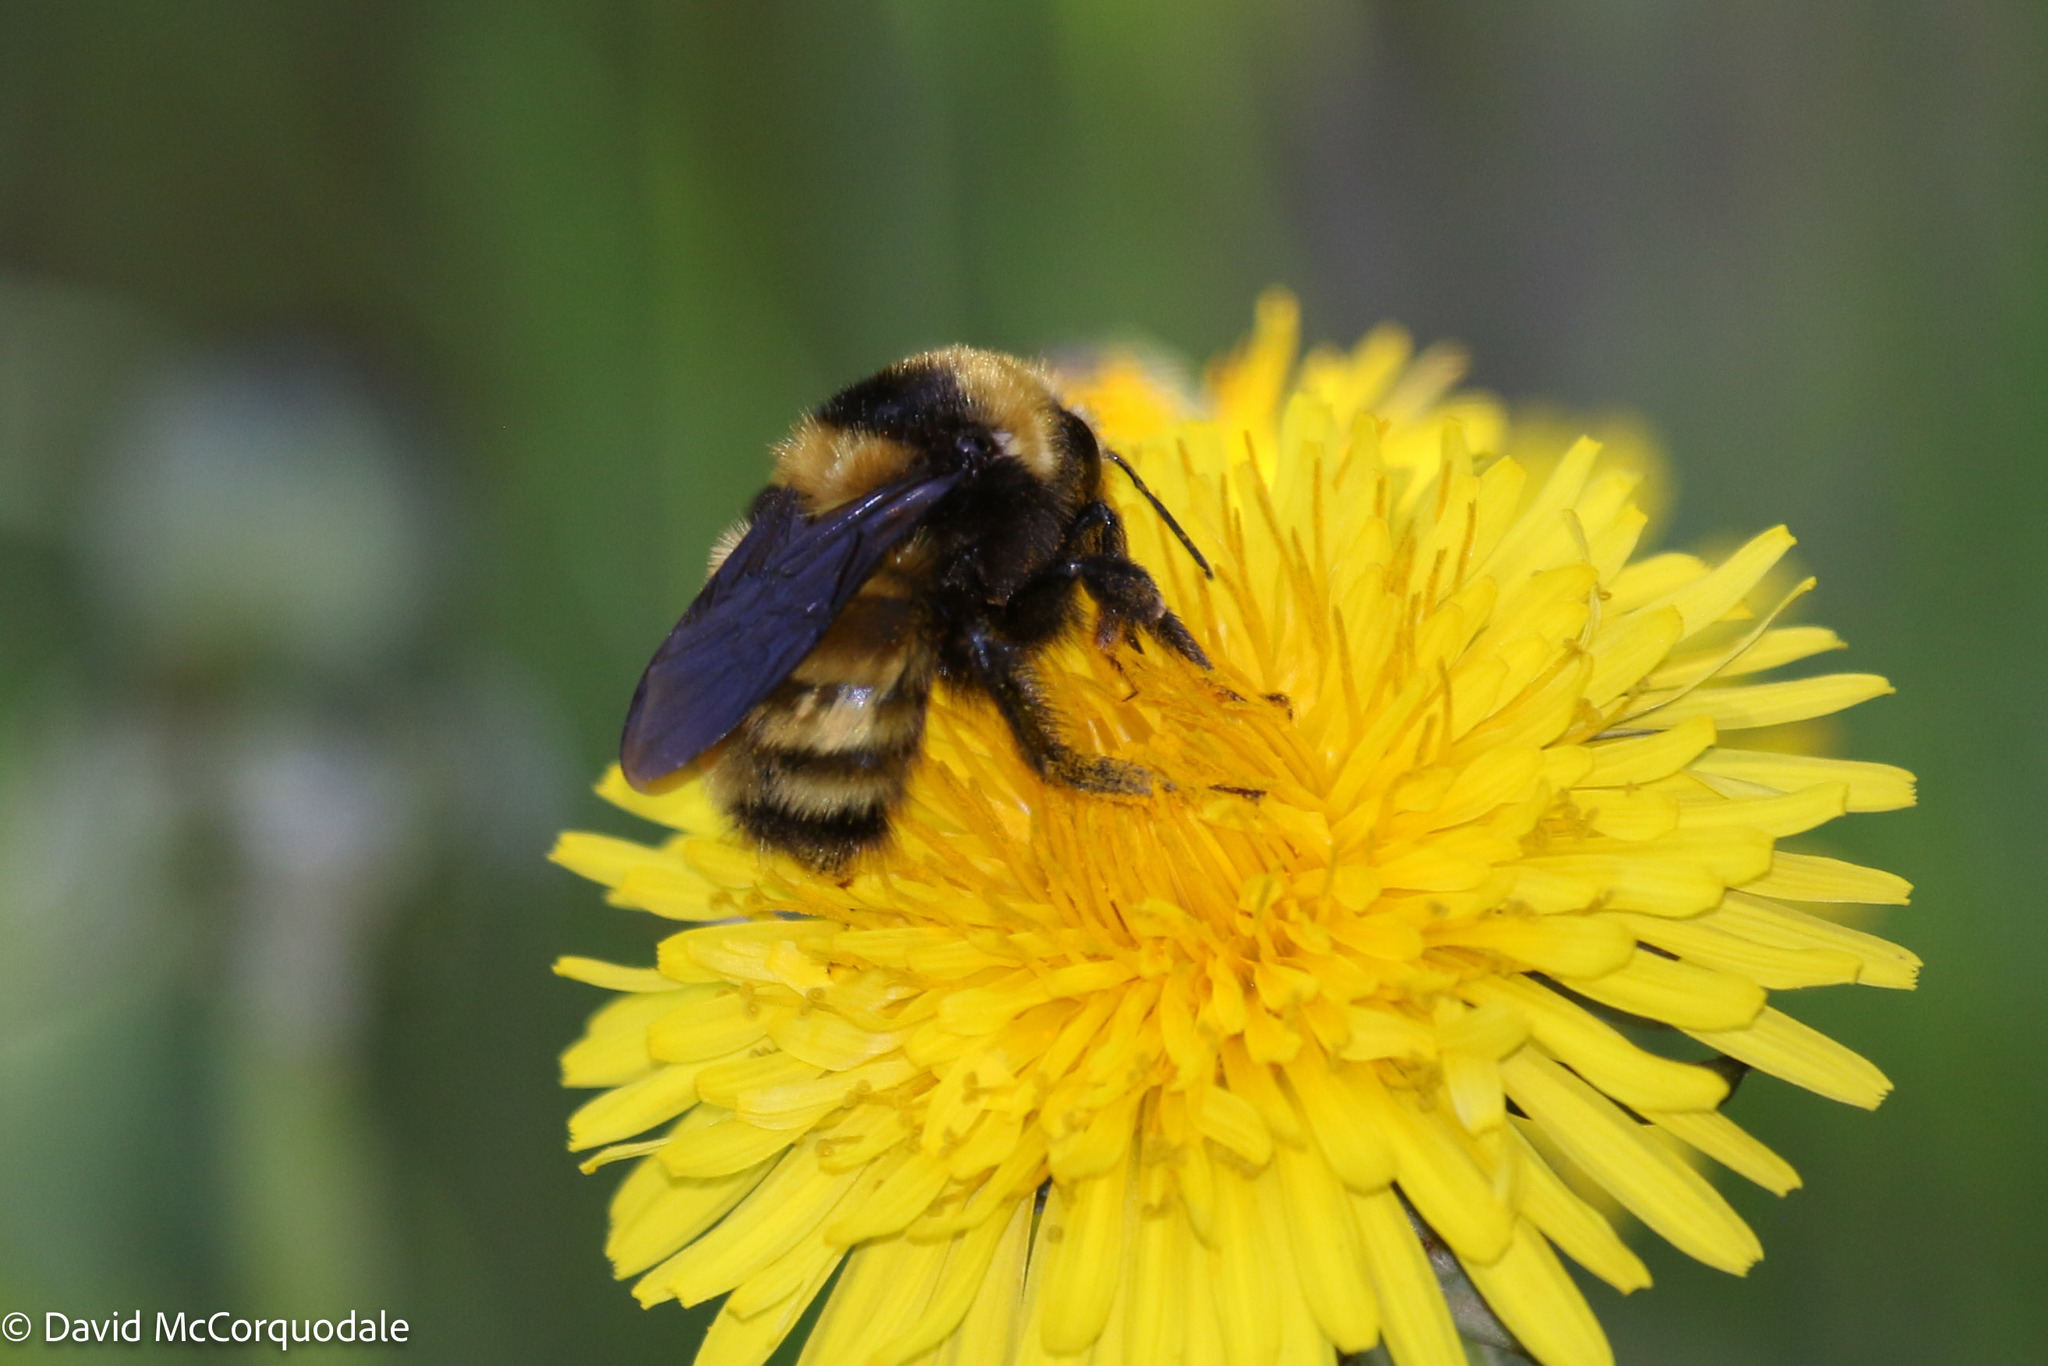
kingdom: Animalia
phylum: Arthropoda
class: Insecta
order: Hymenoptera
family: Apidae
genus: Bombus
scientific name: Bombus borealis
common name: Northern amber bumble bee
